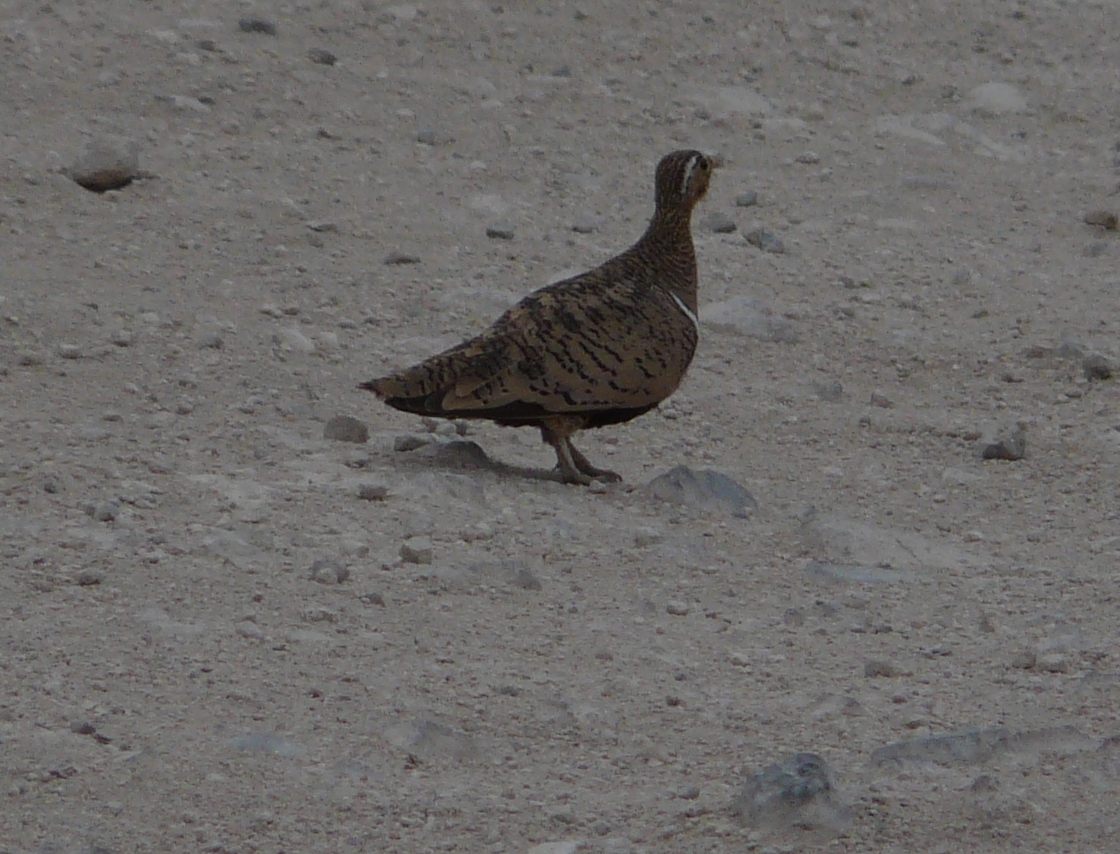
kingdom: Animalia
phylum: Chordata
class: Aves
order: Pteroclidiformes
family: Pteroclididae
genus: Pterocles
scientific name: Pterocles decoratus
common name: Black-faced sandgrouse
